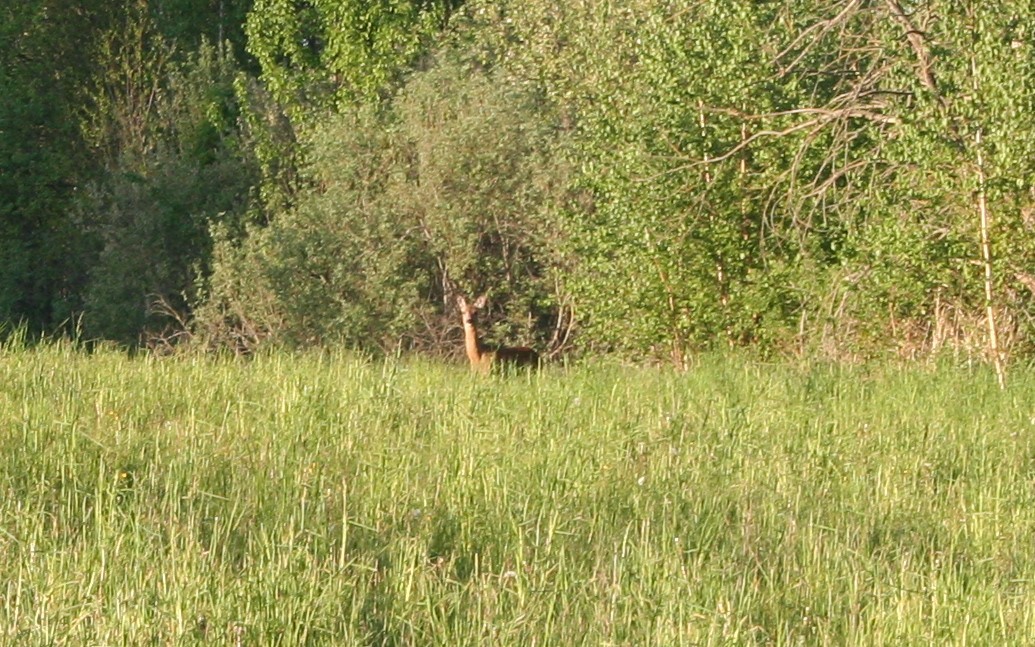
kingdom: Animalia
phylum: Chordata
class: Mammalia
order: Artiodactyla
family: Cervidae
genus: Capreolus
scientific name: Capreolus capreolus
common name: Western roe deer
